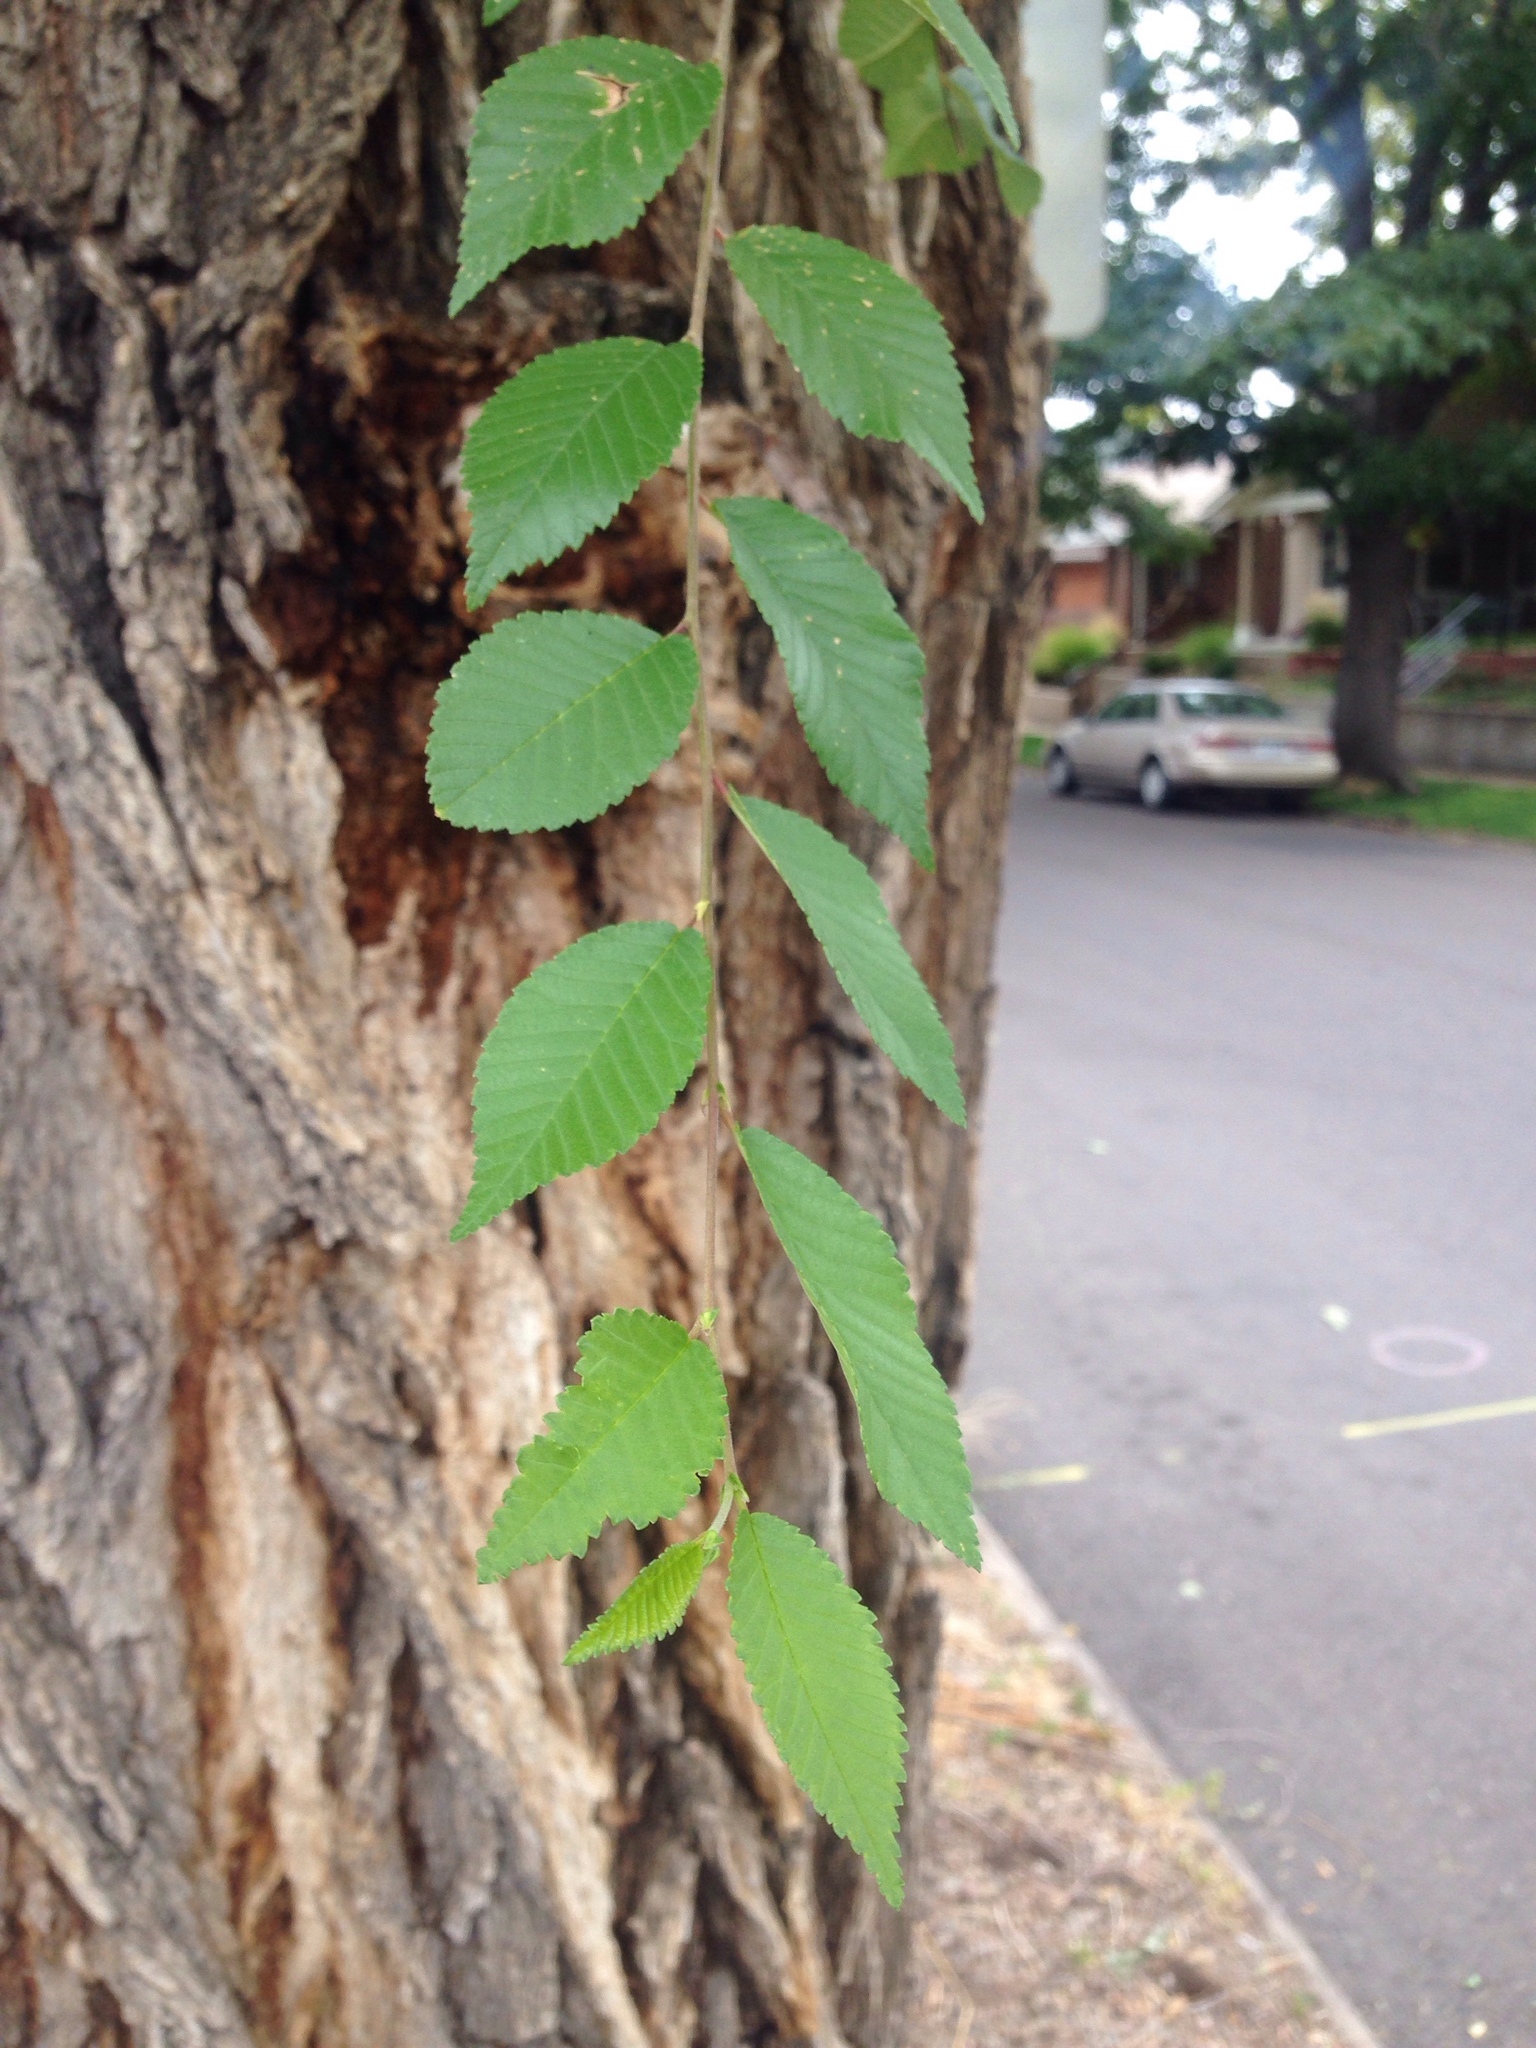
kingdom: Plantae
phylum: Tracheophyta
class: Magnoliopsida
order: Rosales
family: Ulmaceae
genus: Ulmus
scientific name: Ulmus pumila
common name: Siberian elm
